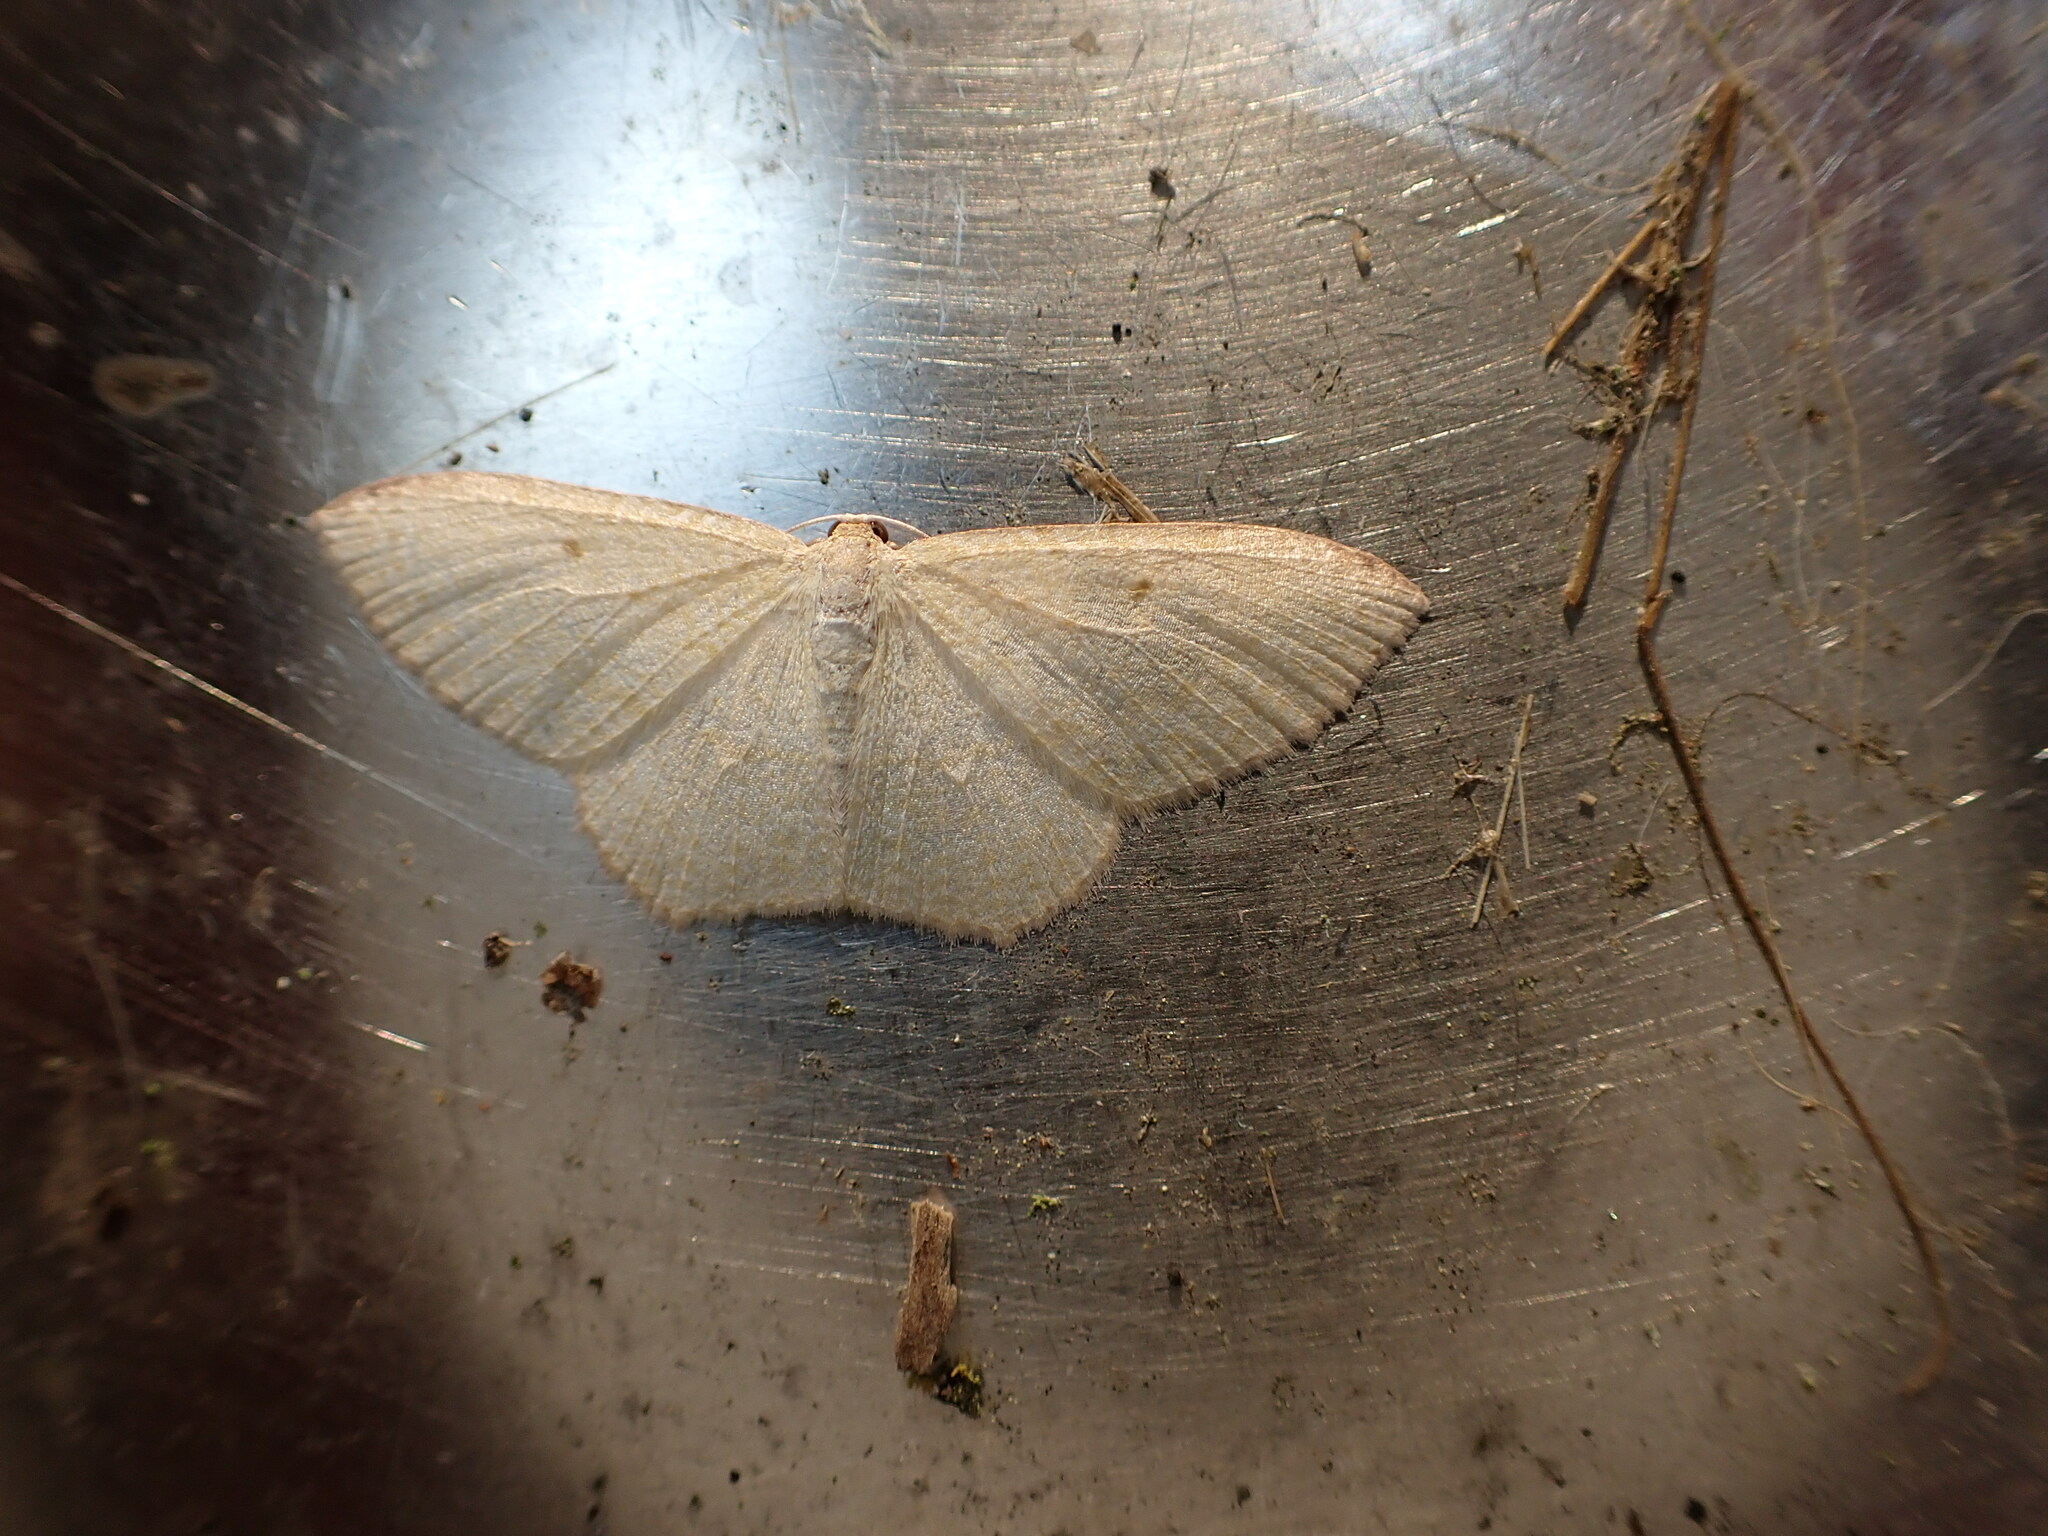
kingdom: Animalia
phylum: Arthropoda
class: Insecta
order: Lepidoptera
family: Geometridae
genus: Poecilasthena
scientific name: Poecilasthena pulchraria
